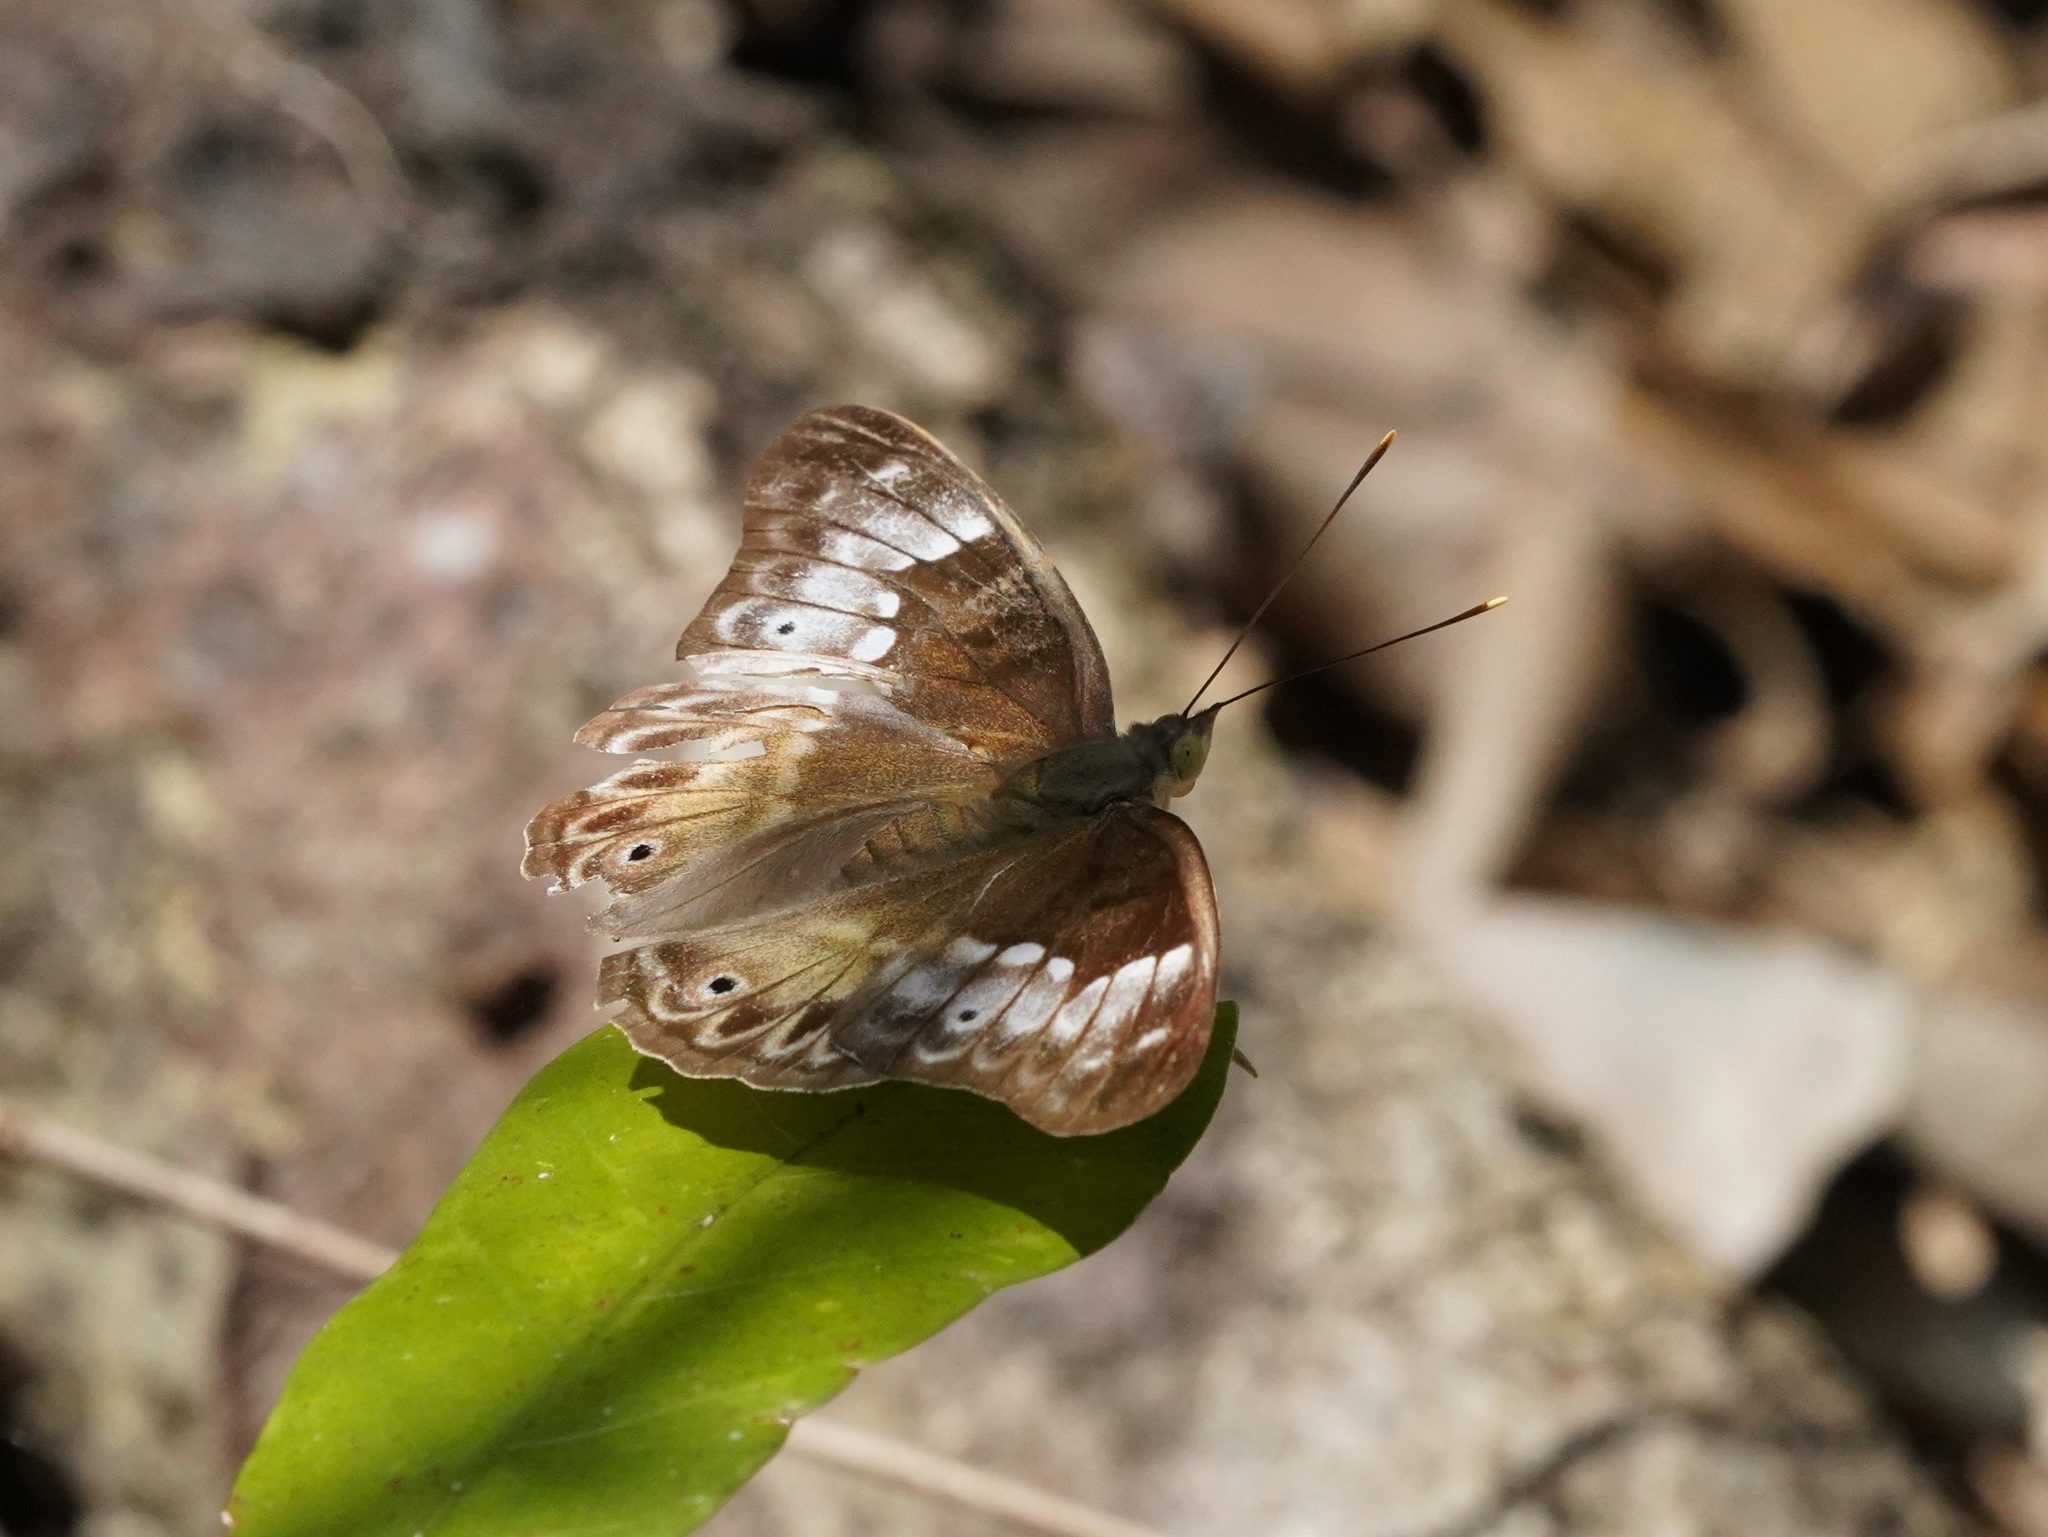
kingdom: Animalia
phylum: Arthropoda
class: Insecta
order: Lepidoptera
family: Nymphalidae
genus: Eulaceura
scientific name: Eulaceura osteria
